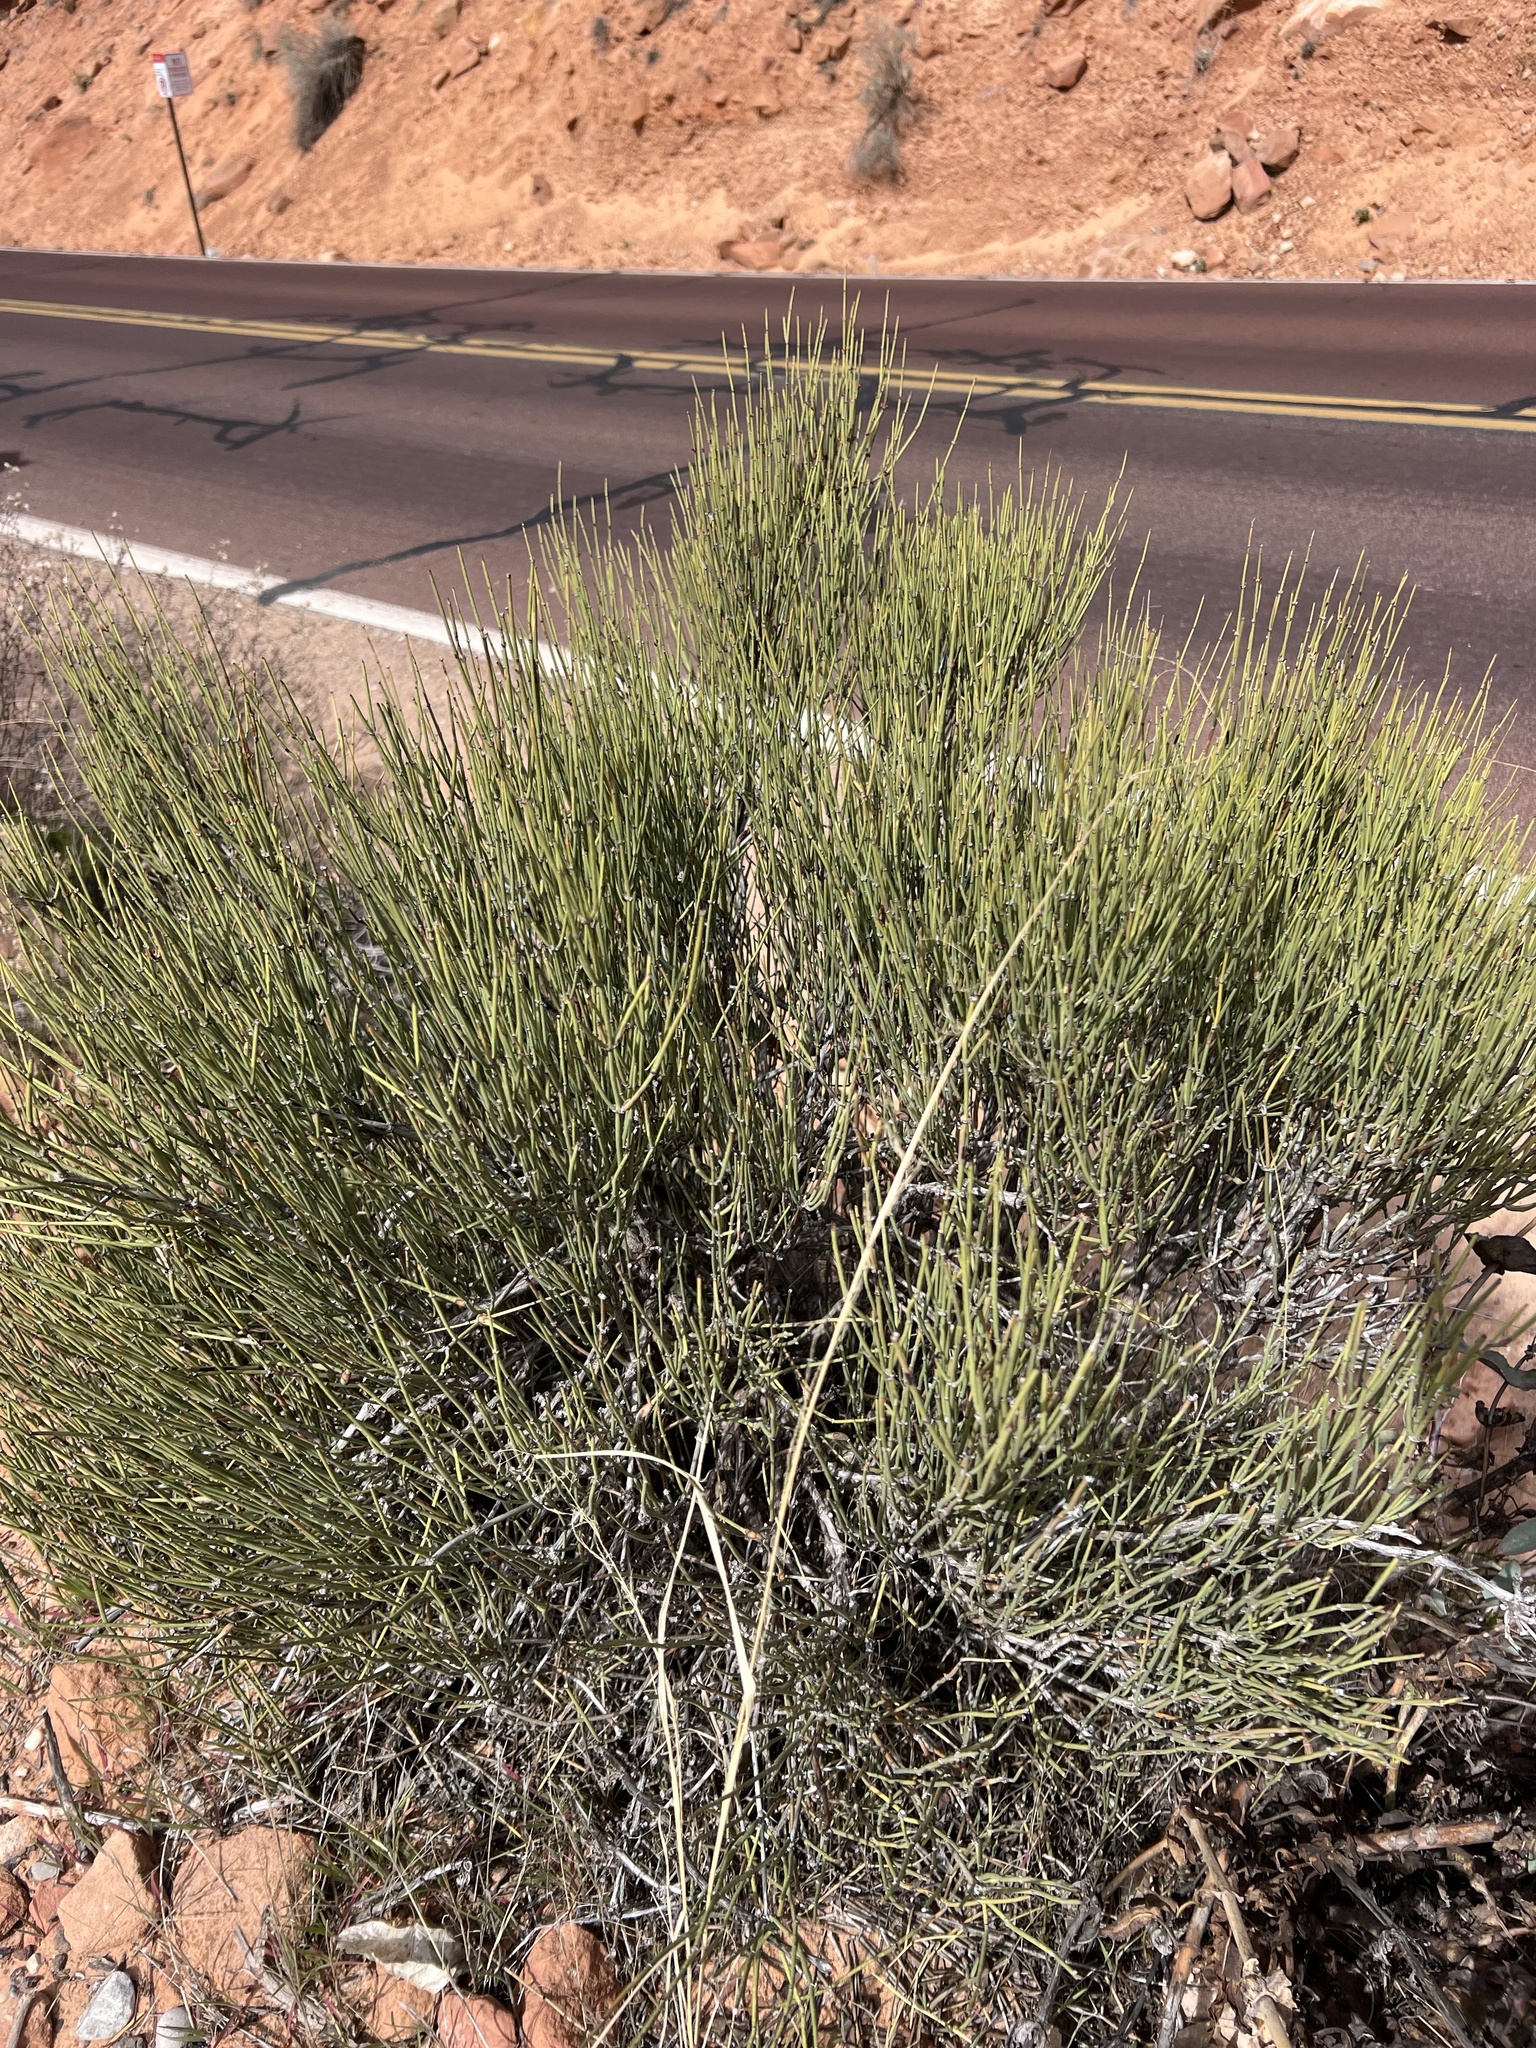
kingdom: Plantae
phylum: Tracheophyta
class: Gnetopsida
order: Ephedrales
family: Ephedraceae
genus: Ephedra
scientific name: Ephedra viridis
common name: Green ephedra
